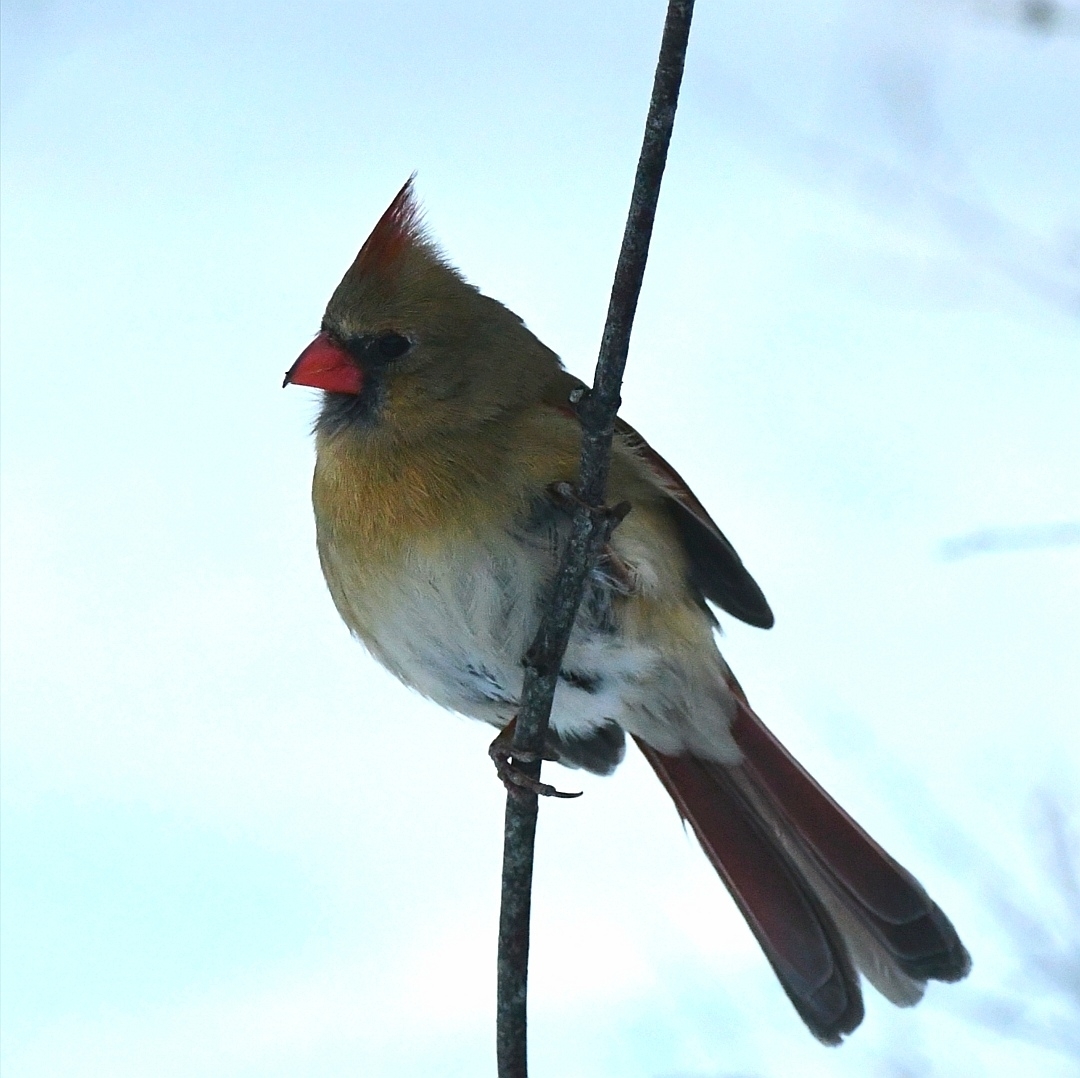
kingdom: Animalia
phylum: Chordata
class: Aves
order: Passeriformes
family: Cardinalidae
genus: Cardinalis
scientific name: Cardinalis cardinalis
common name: Northern cardinal
